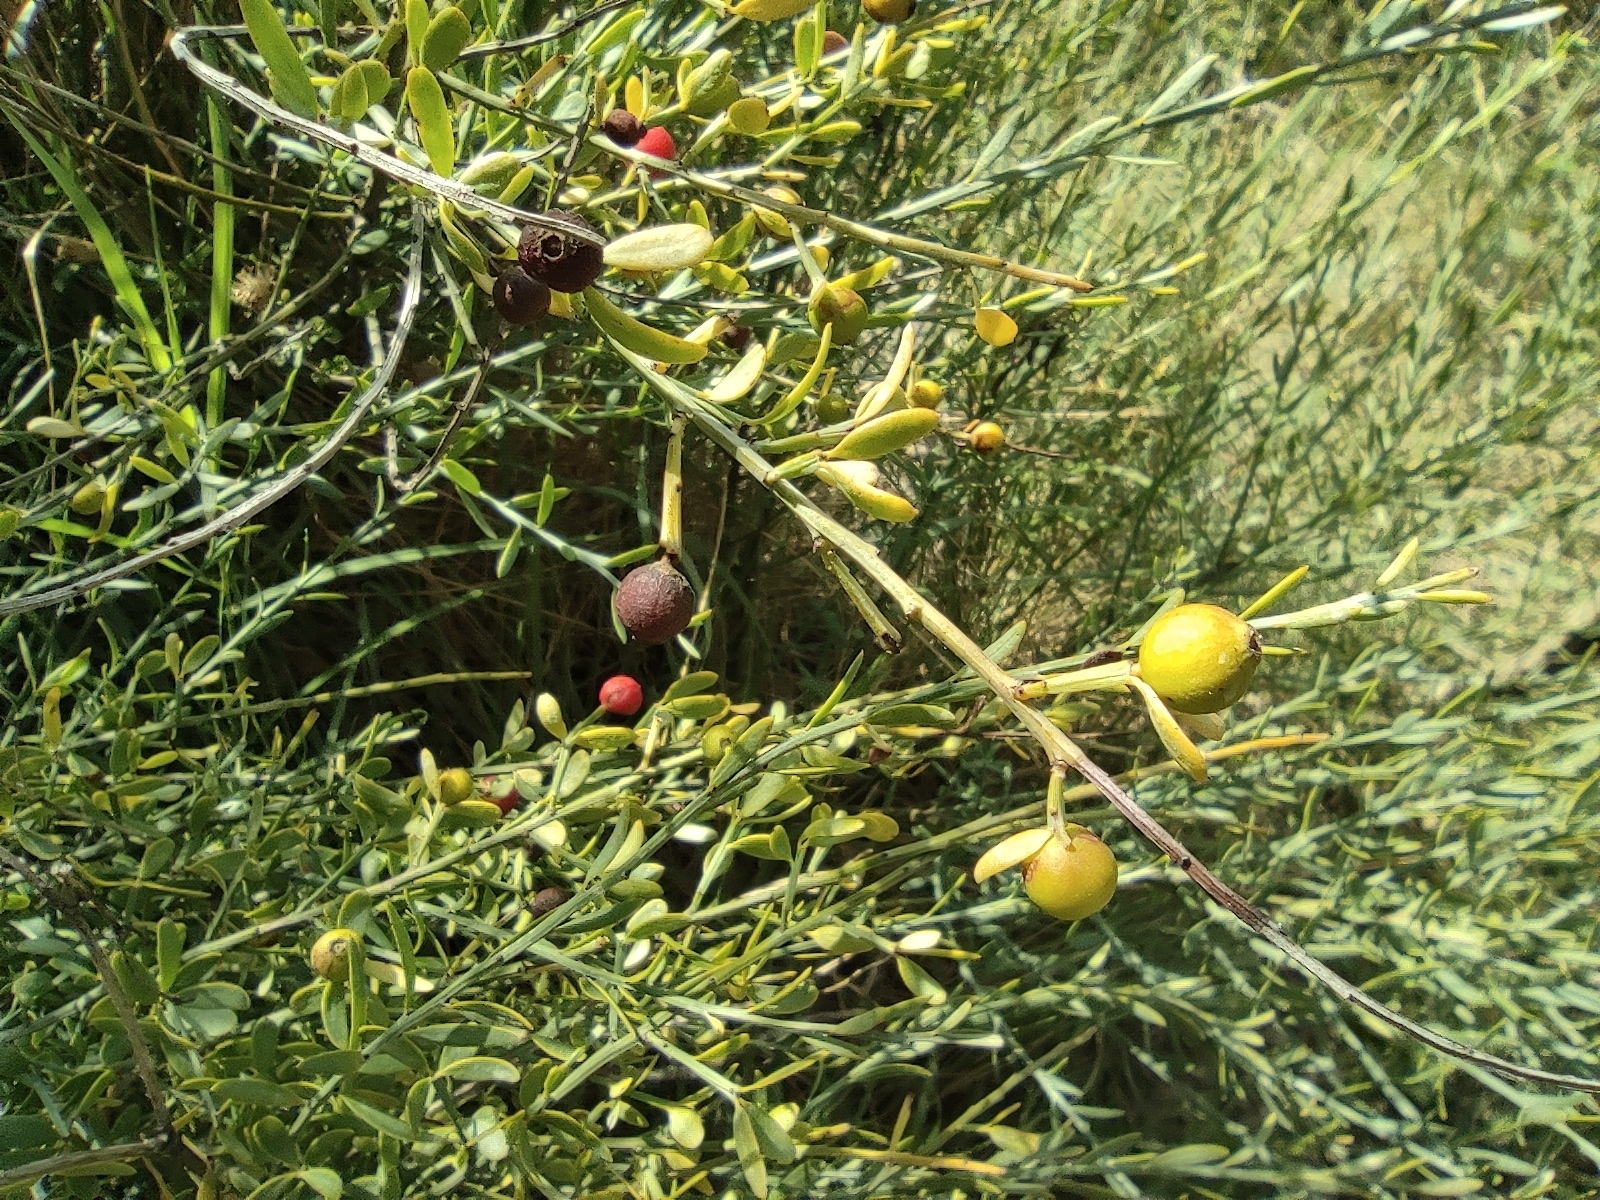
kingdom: Plantae
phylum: Tracheophyta
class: Magnoliopsida
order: Santalales
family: Santalaceae
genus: Osyris
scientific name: Osyris alba
